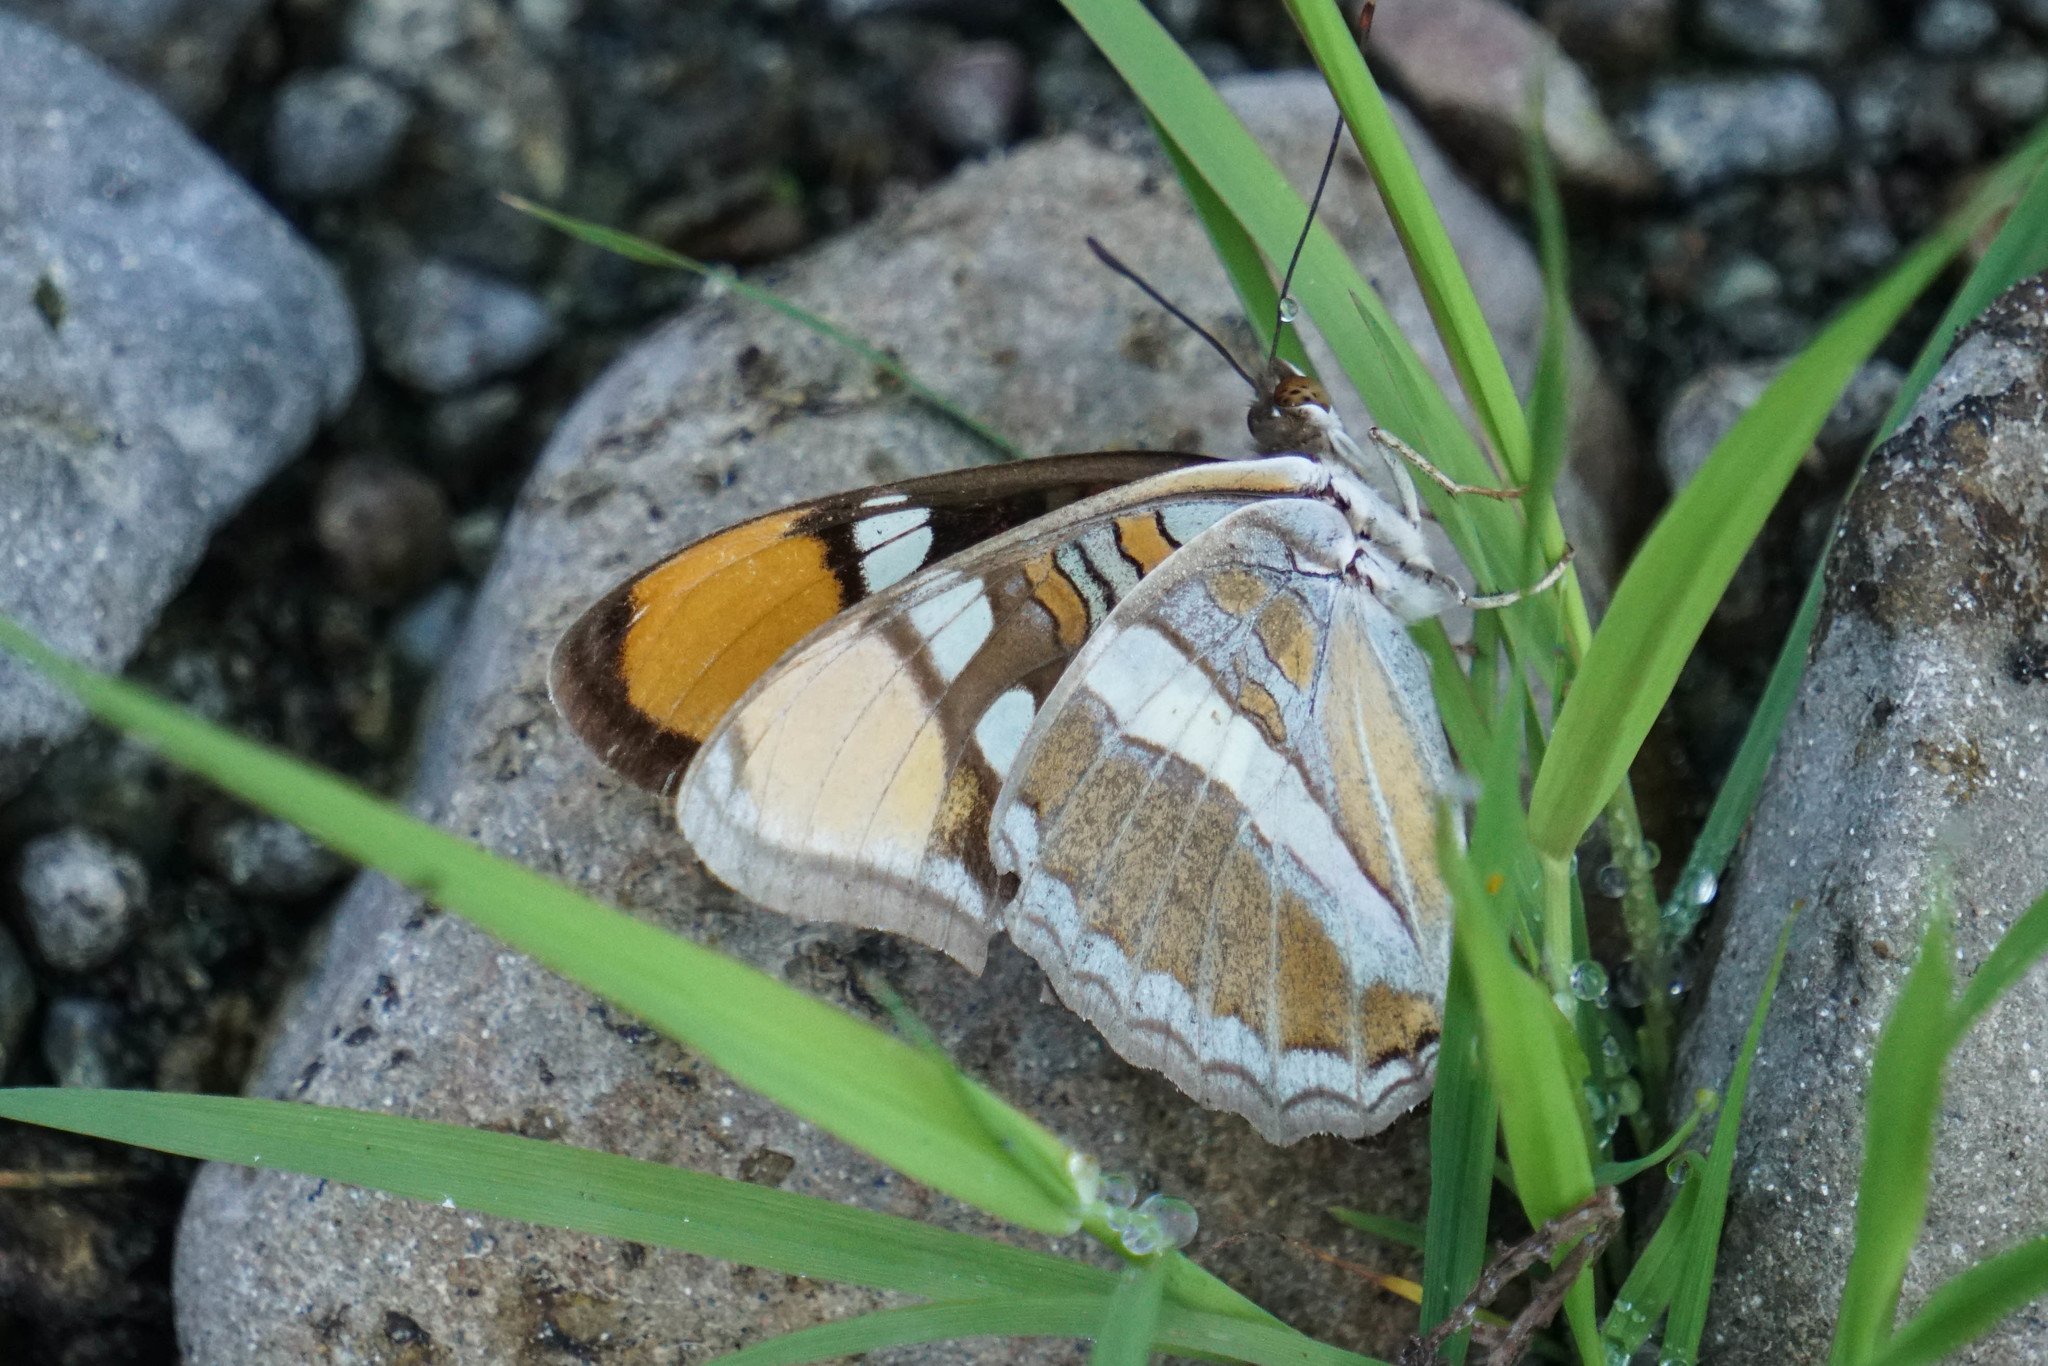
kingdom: Animalia
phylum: Arthropoda
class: Insecta
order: Lepidoptera
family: Nymphalidae
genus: Limenitis
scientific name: Limenitis bredowii
